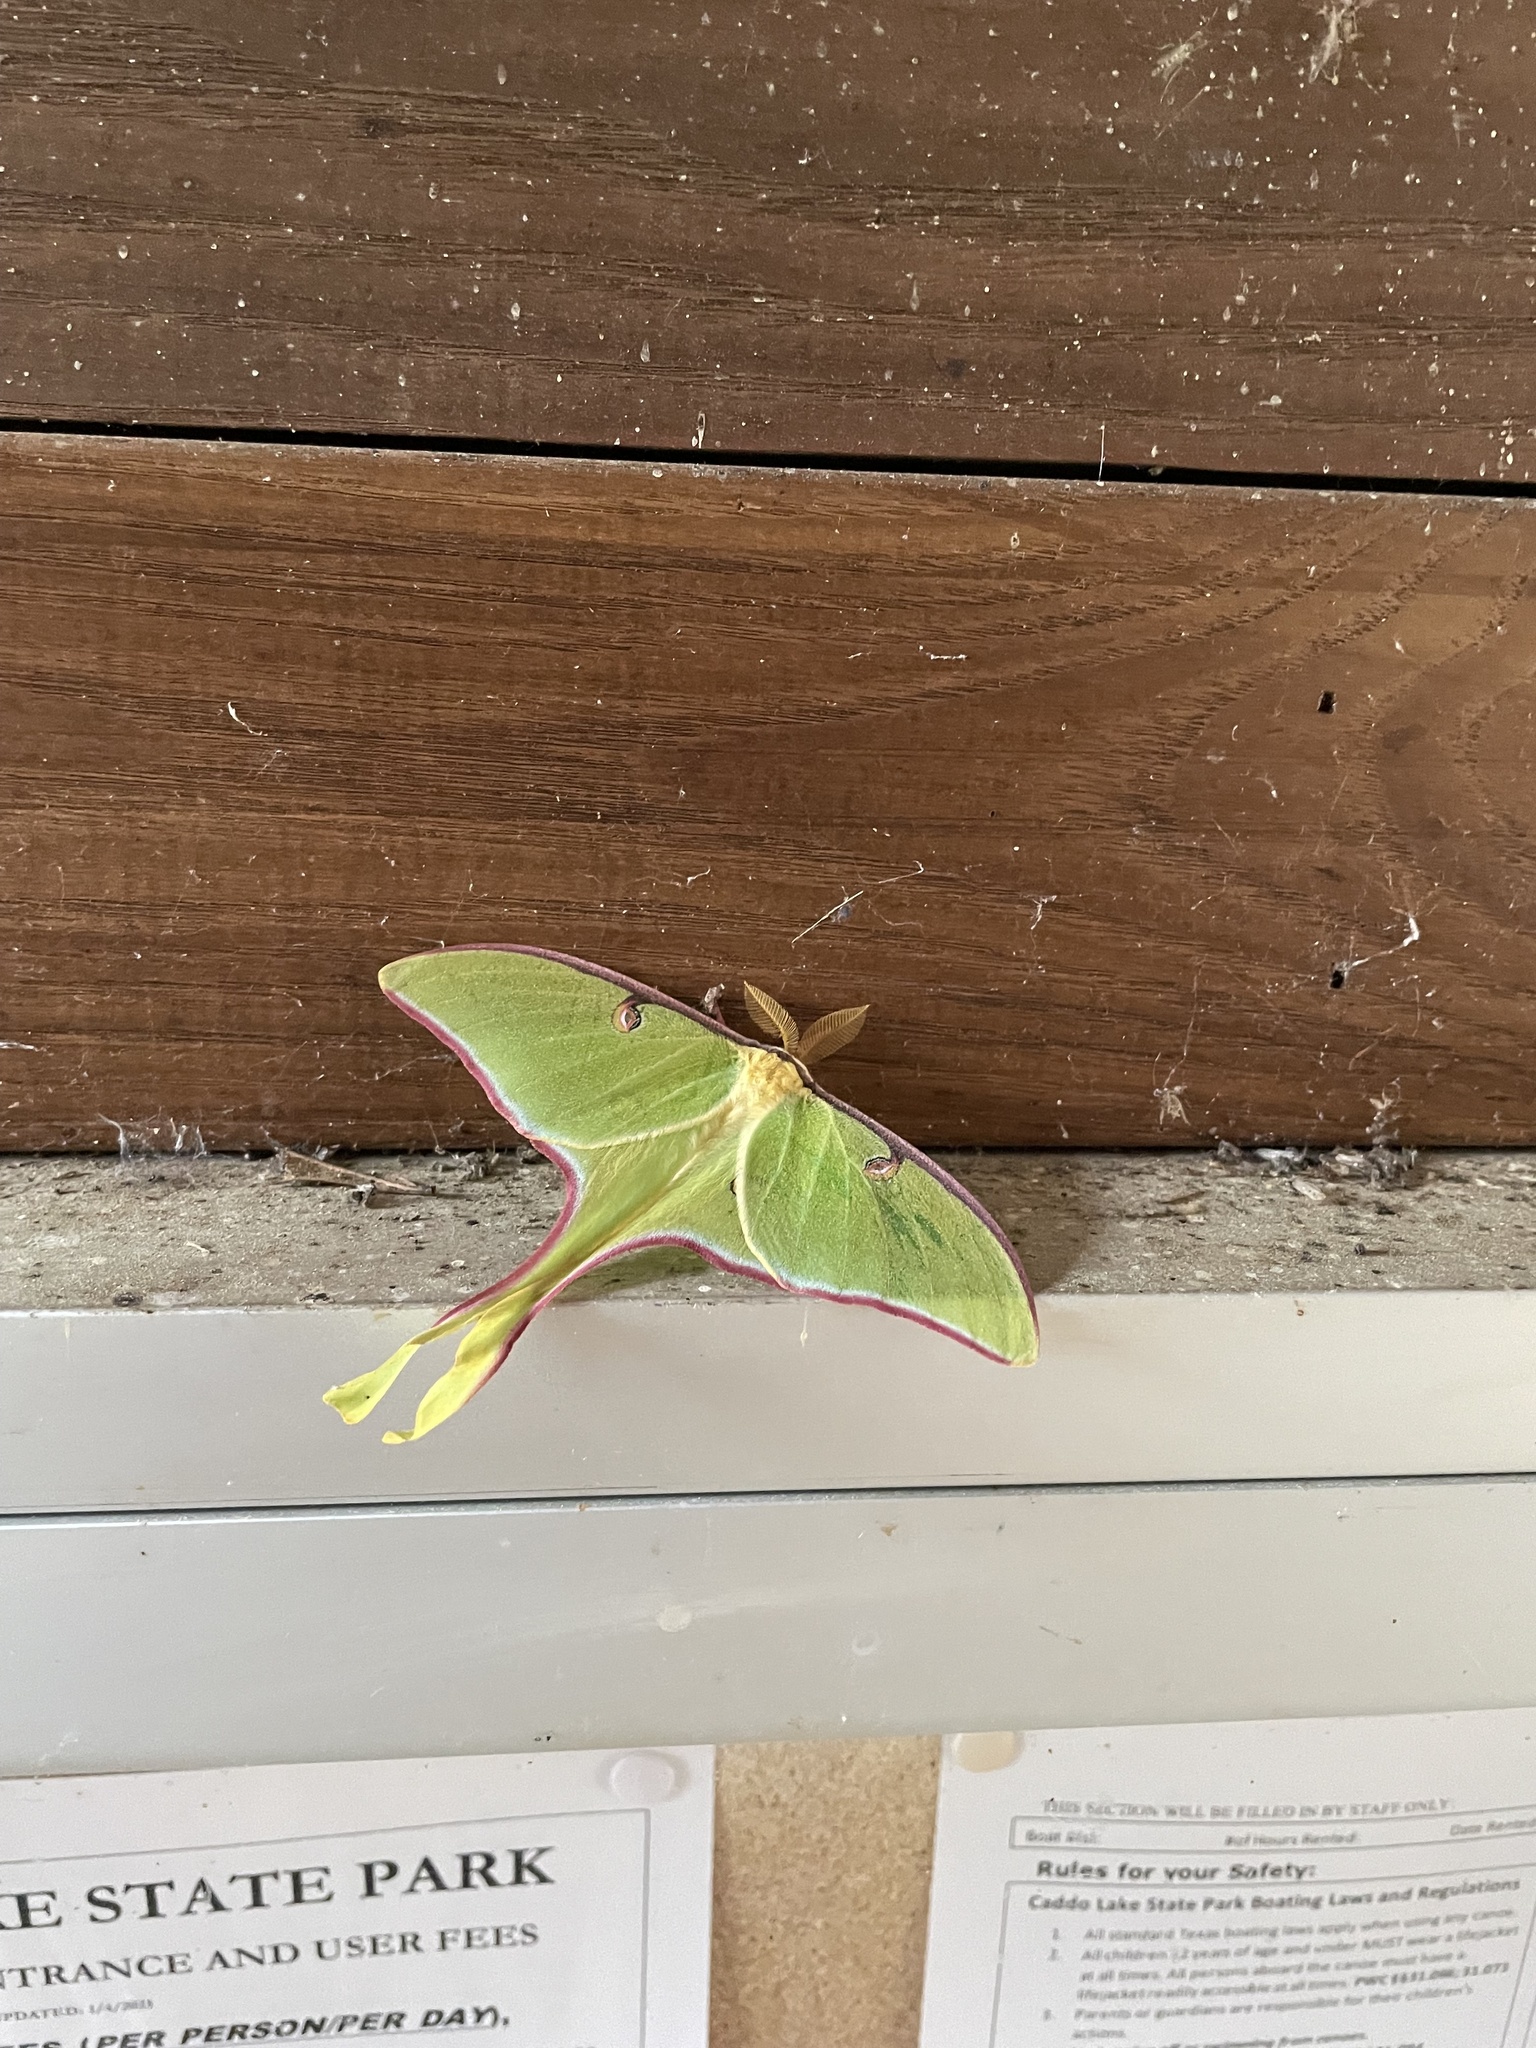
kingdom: Animalia
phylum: Arthropoda
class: Insecta
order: Lepidoptera
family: Saturniidae
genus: Actias
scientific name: Actias luna
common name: Luna moth
